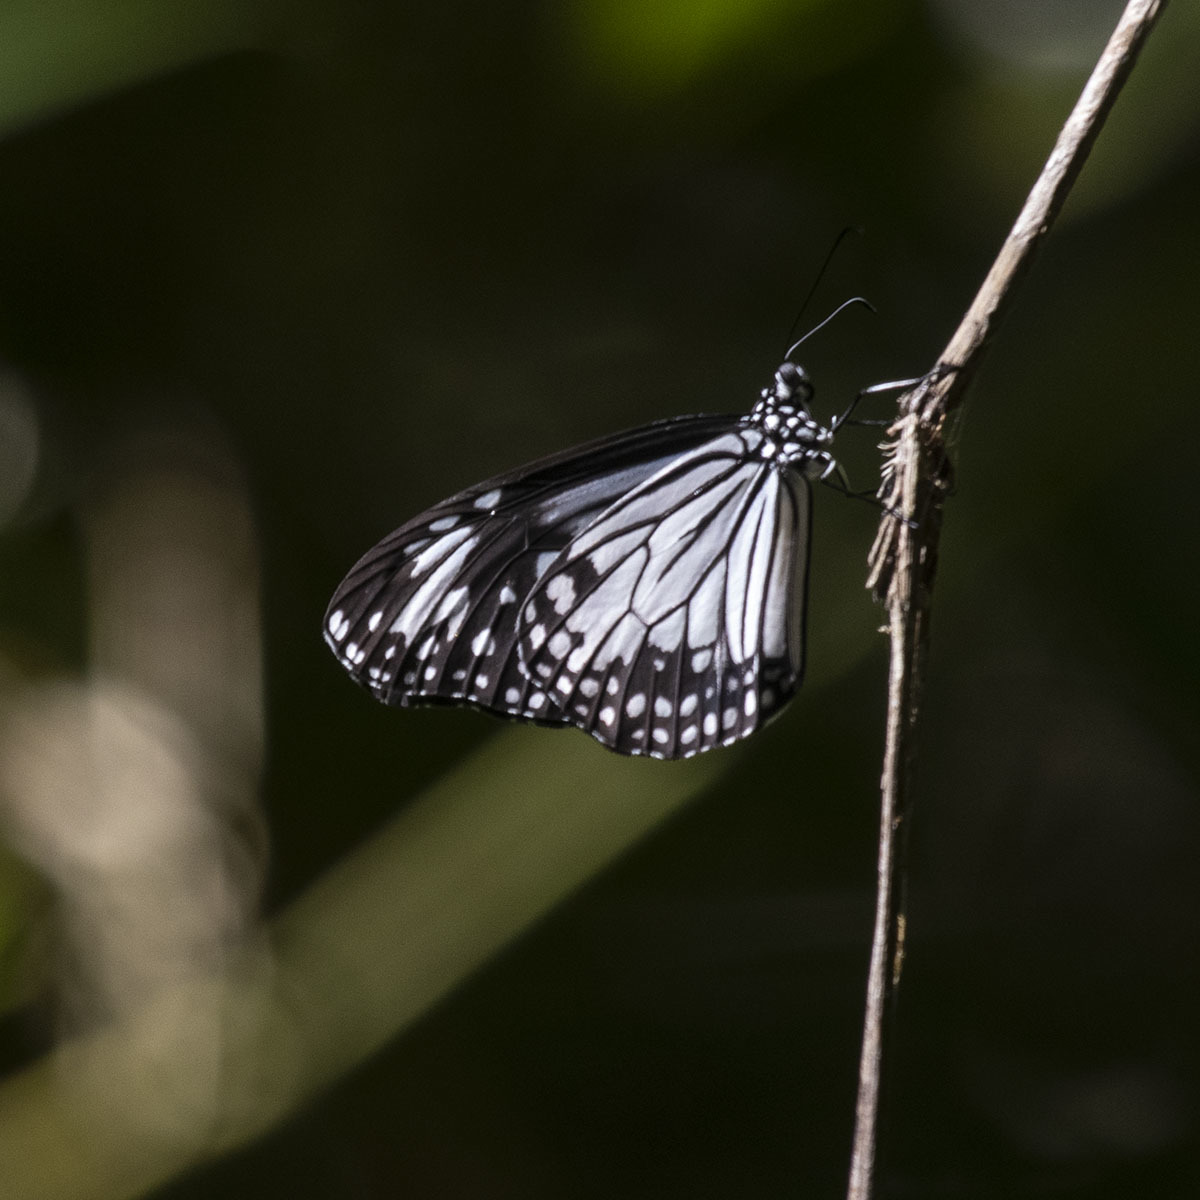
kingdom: Animalia
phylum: Arthropoda
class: Insecta
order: Lepidoptera
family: Nymphalidae
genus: Parantica
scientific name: Parantica aglea
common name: Glassy tiger
